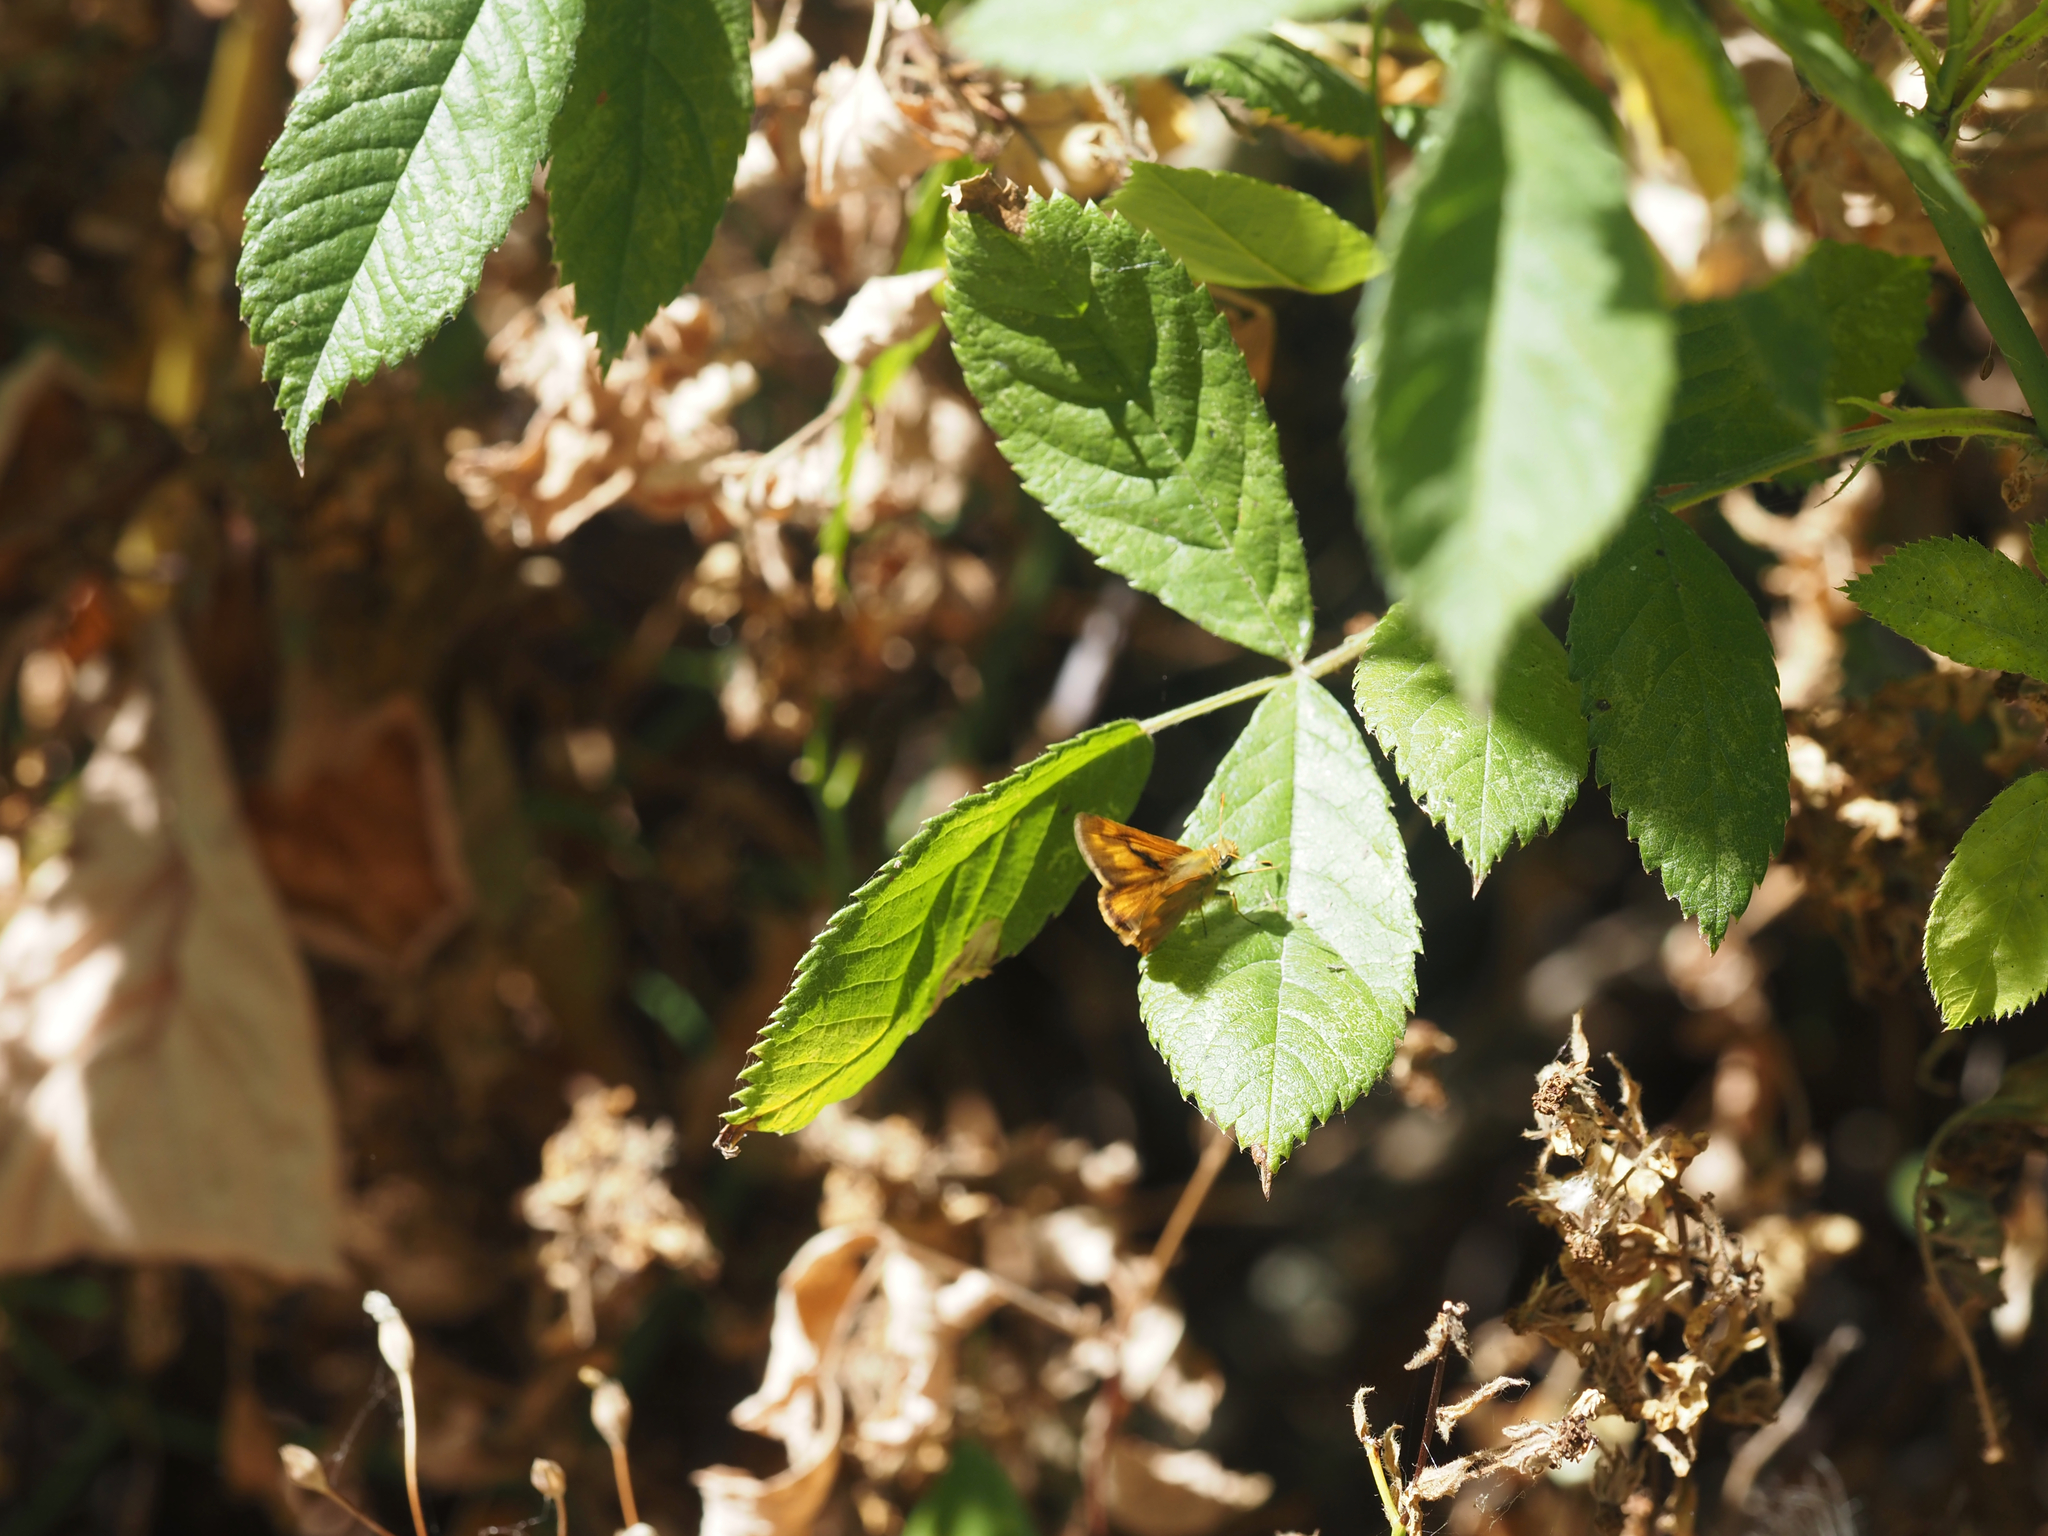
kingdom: Animalia
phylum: Arthropoda
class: Insecta
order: Lepidoptera
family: Hesperiidae
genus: Ochlodes
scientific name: Ochlodes sylvanoides
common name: Woodland skipper
